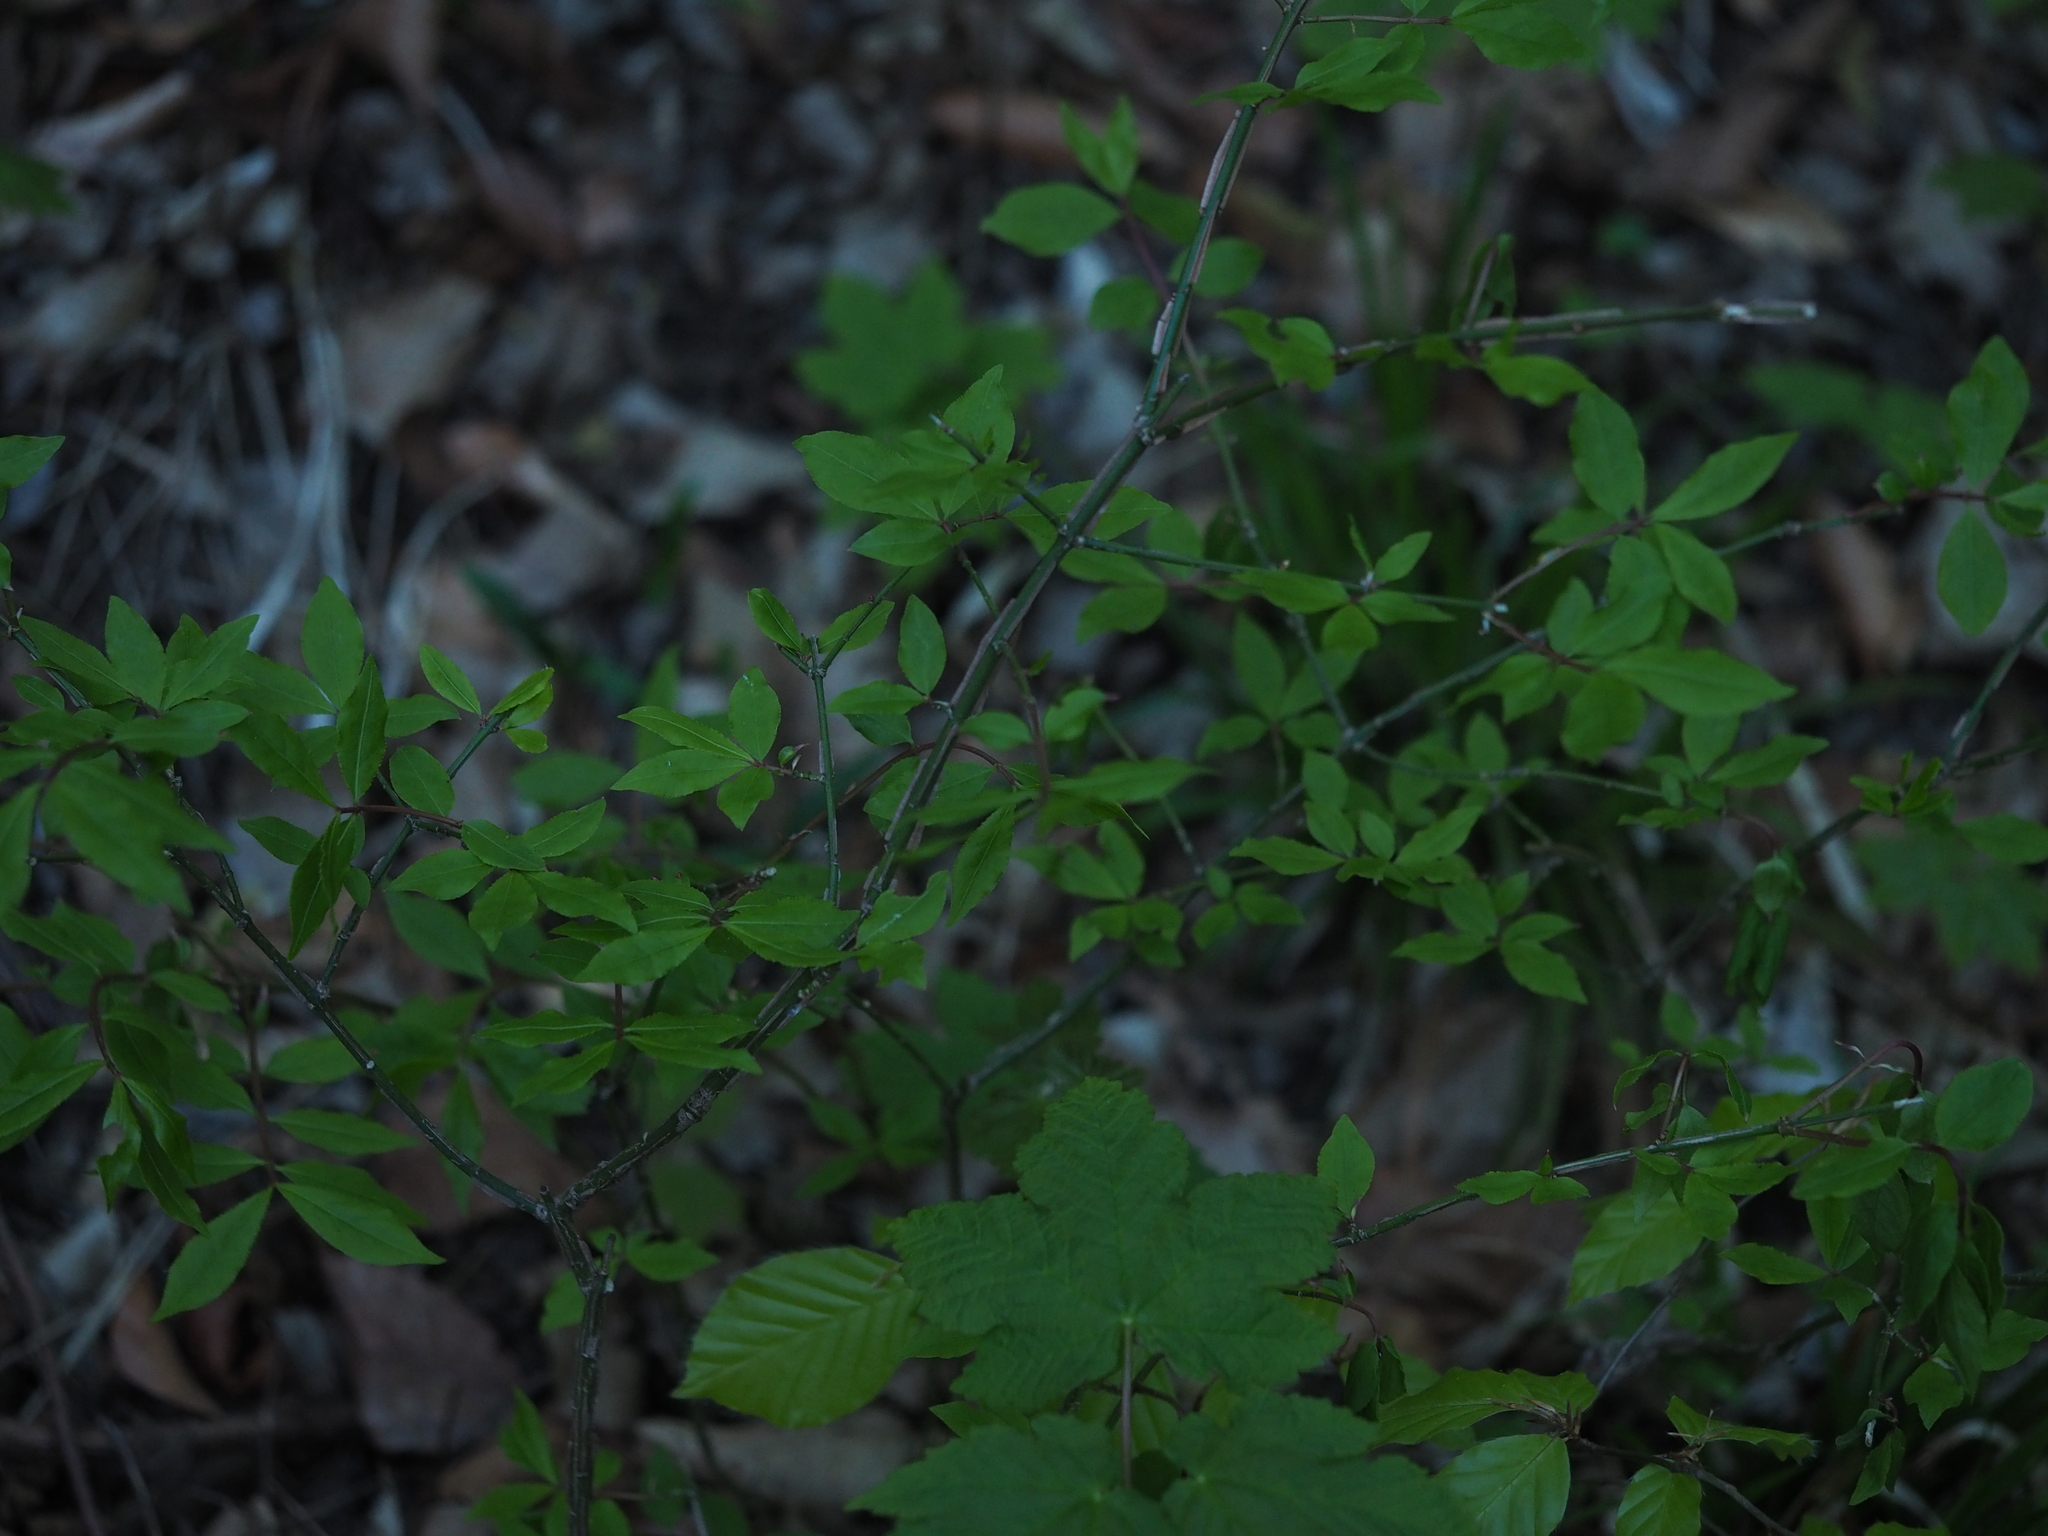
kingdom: Plantae
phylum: Tracheophyta
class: Magnoliopsida
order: Celastrales
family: Celastraceae
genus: Euonymus
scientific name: Euonymus alatus
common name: Winged euonymus
